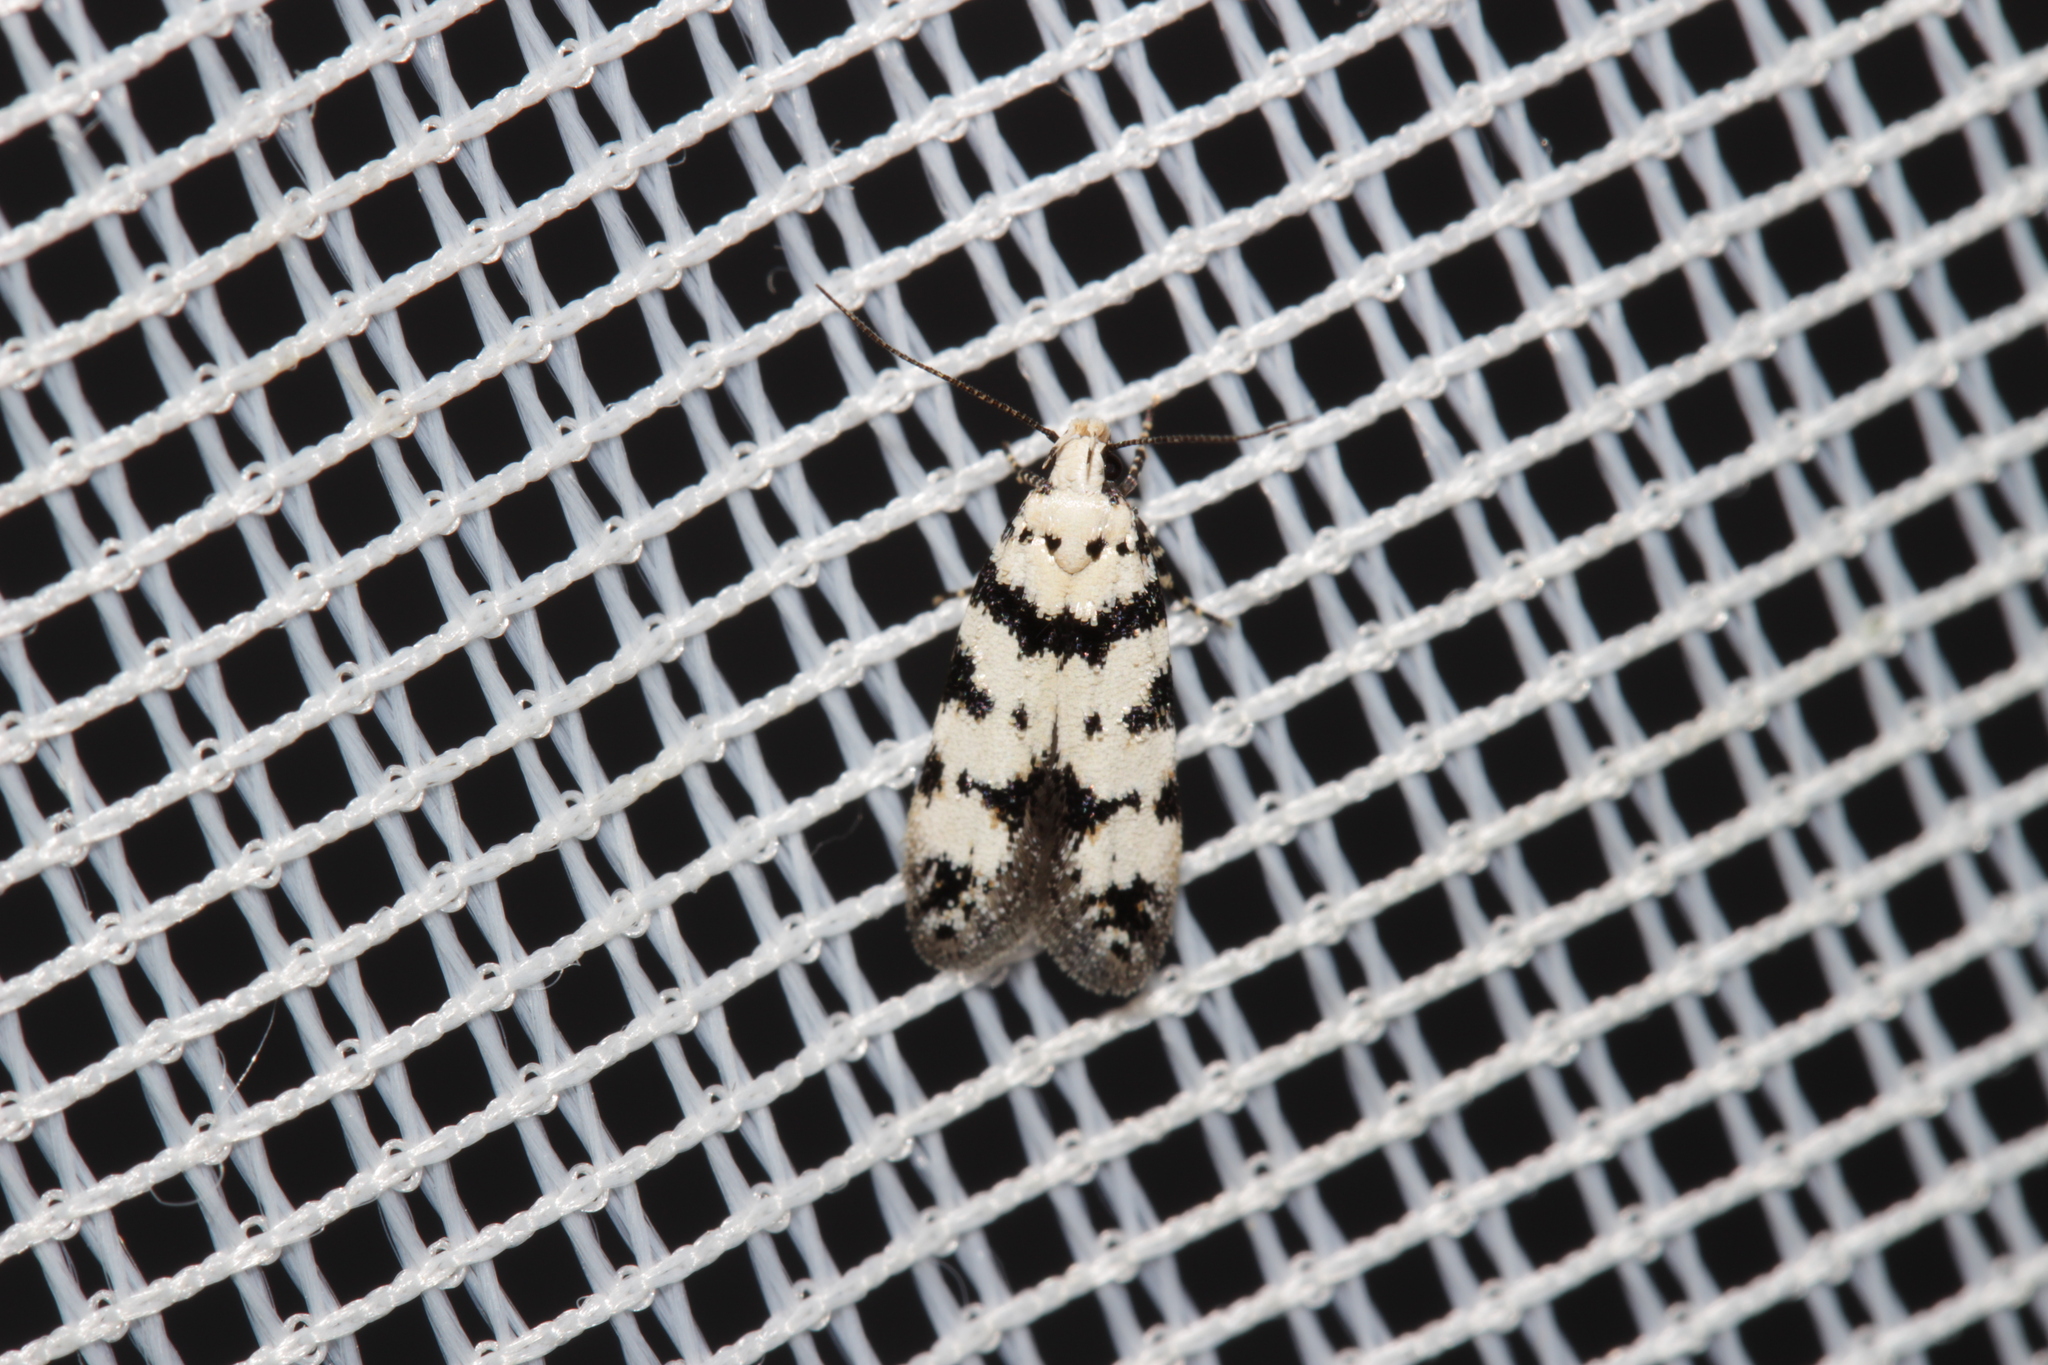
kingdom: Animalia
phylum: Arthropoda
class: Insecta
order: Lepidoptera
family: Gelechiidae
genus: Pseudotelphusa
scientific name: Pseudotelphusa scalella
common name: Black-spotted groundling
